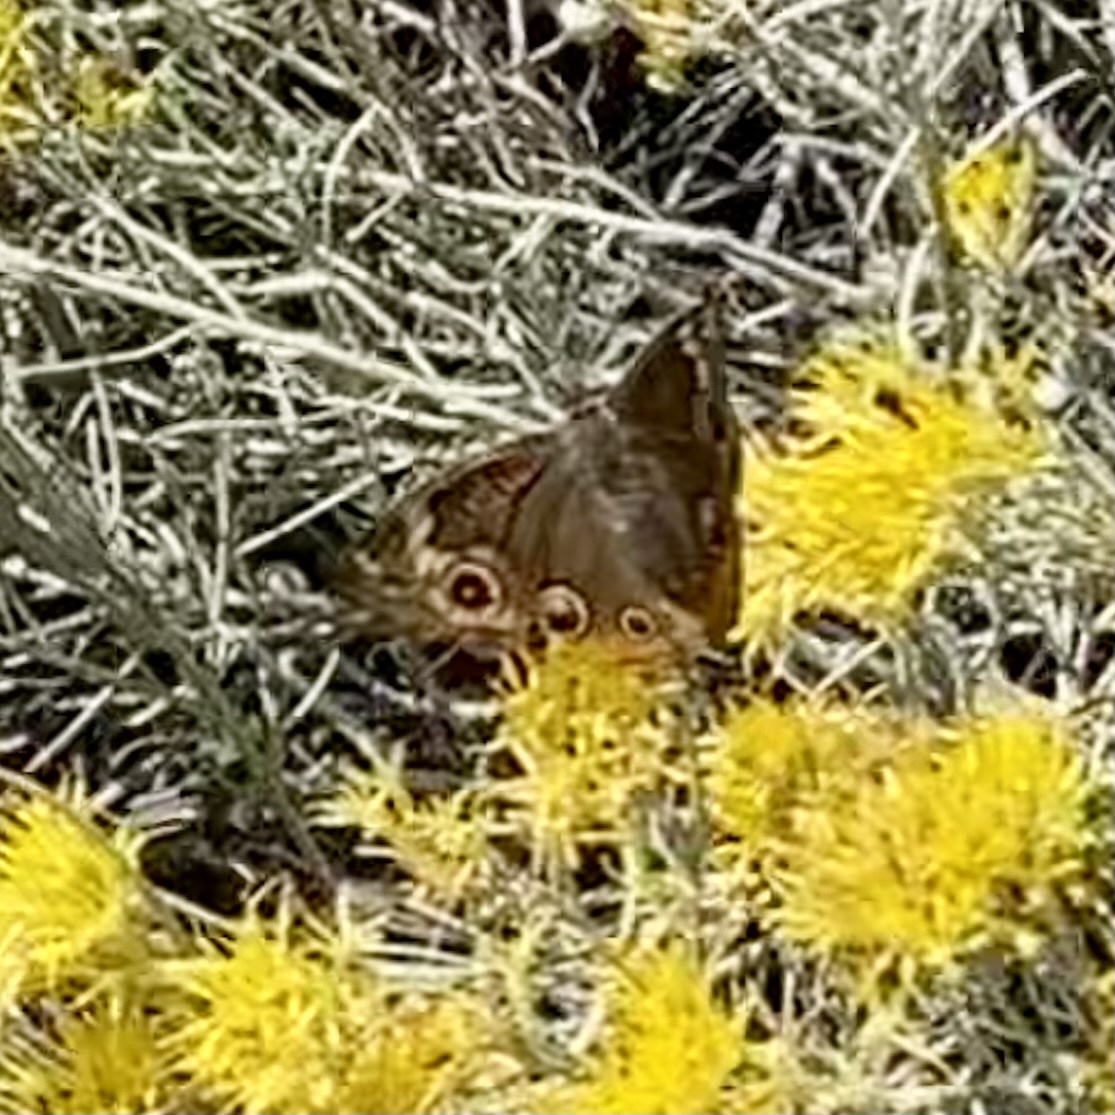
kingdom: Animalia
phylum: Arthropoda
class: Insecta
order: Lepidoptera
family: Nymphalidae
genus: Junonia
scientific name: Junonia grisea
